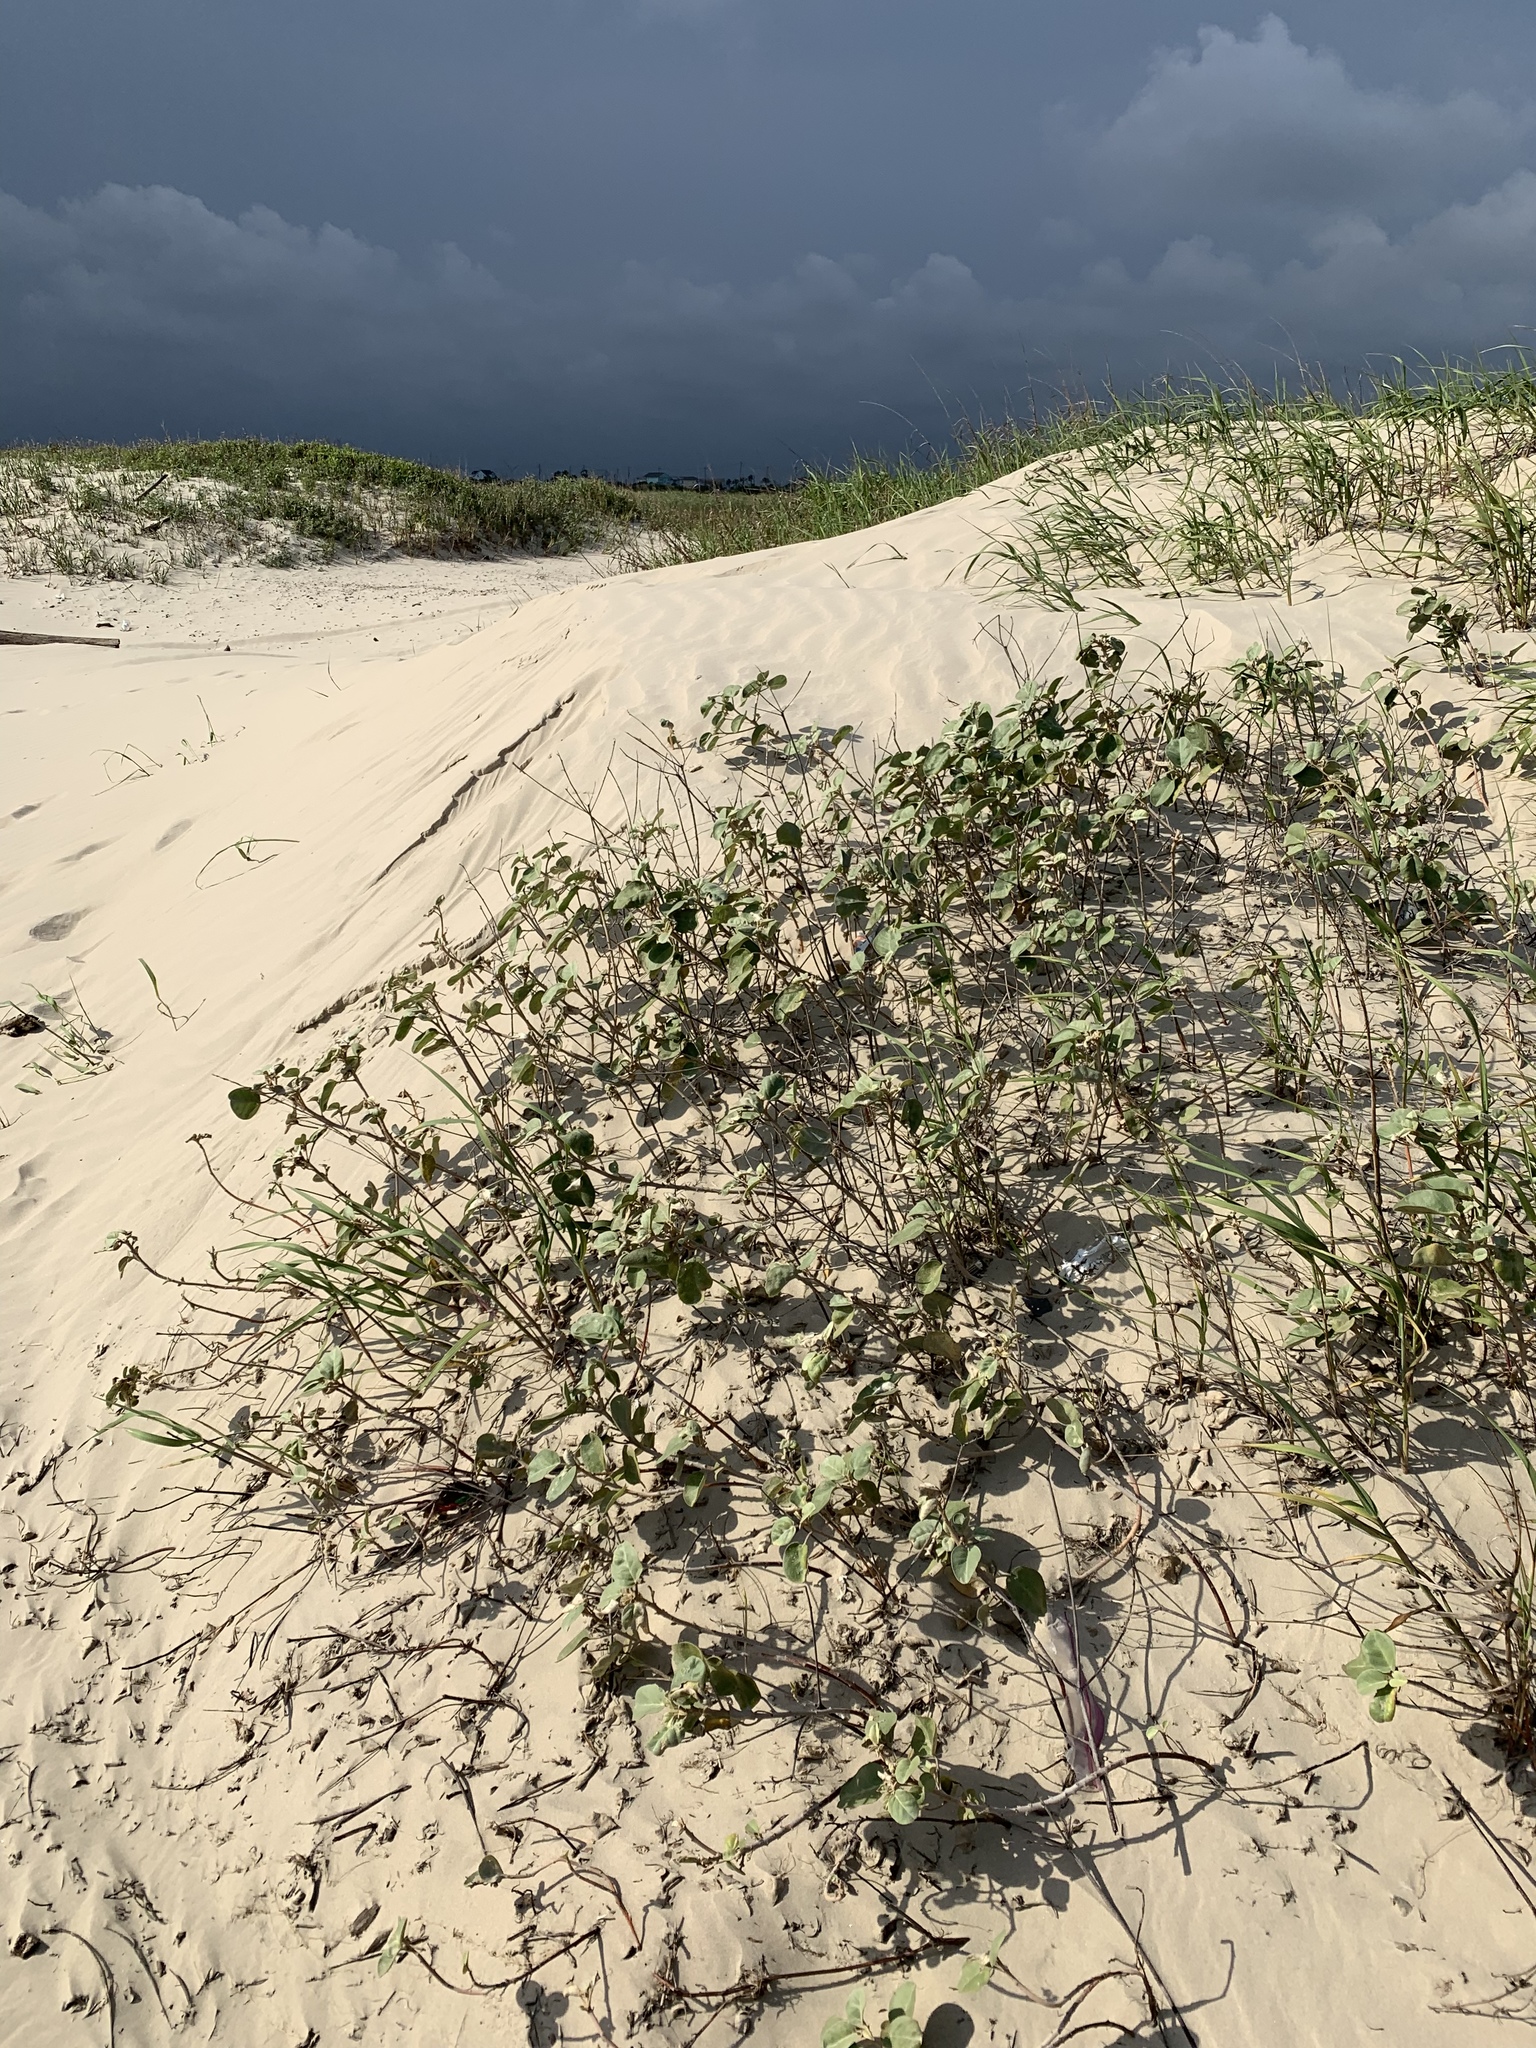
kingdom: Plantae
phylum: Tracheophyta
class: Magnoliopsida
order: Malpighiales
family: Euphorbiaceae
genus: Croton
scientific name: Croton punctatus
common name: Beach-tea
